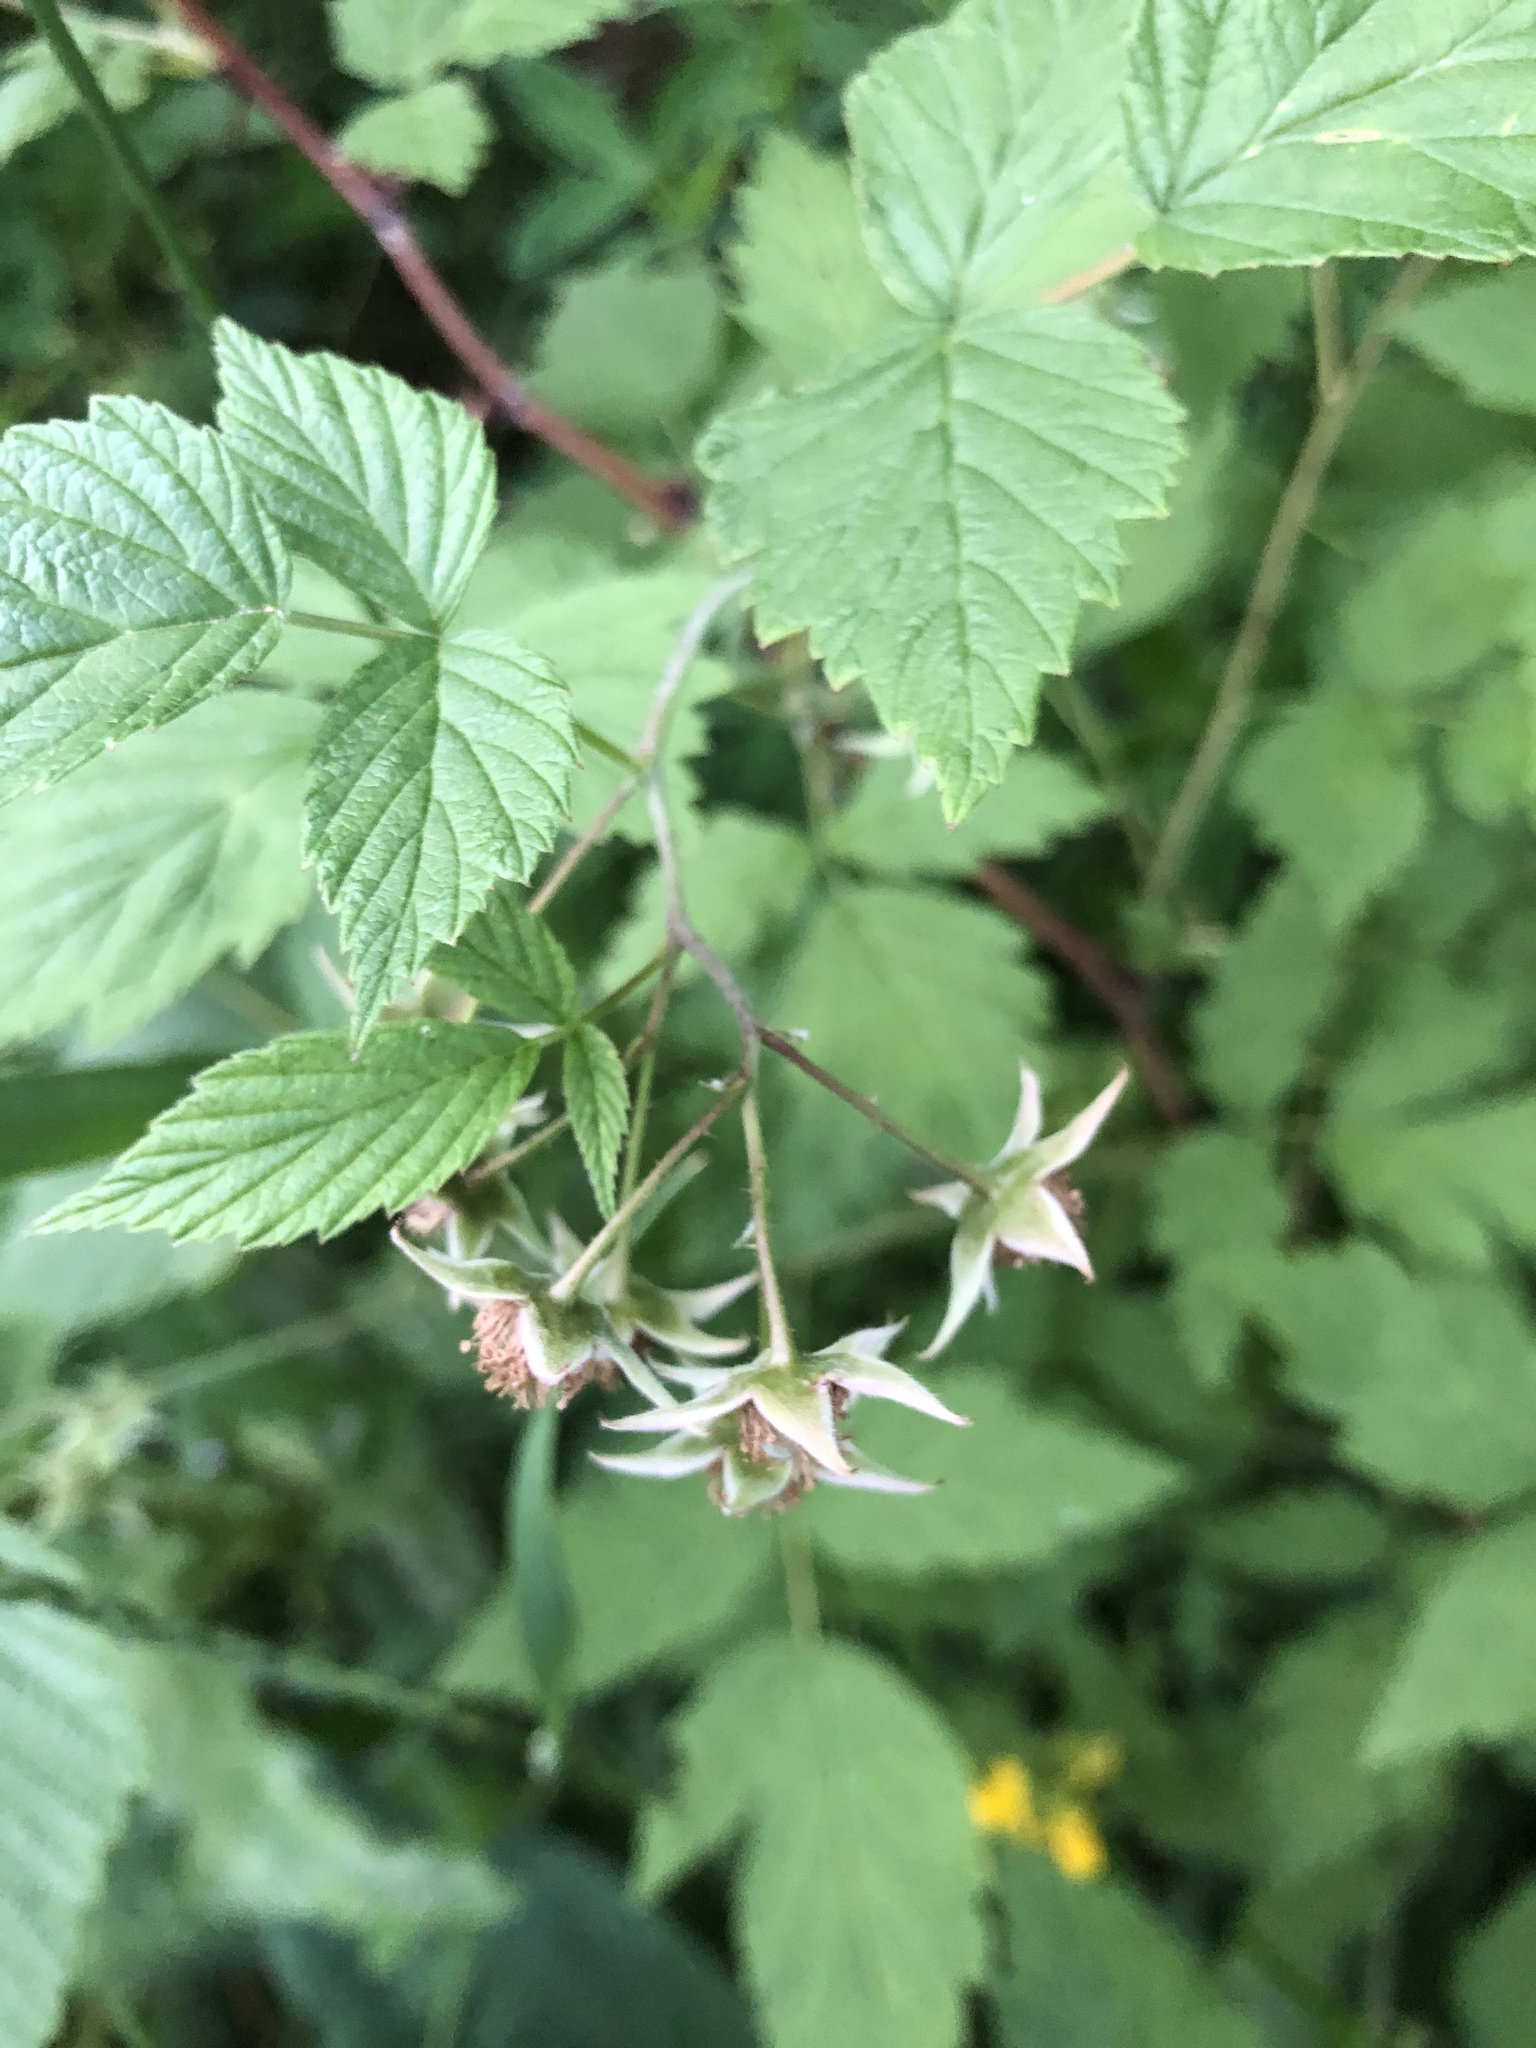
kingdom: Plantae
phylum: Tracheophyta
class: Magnoliopsida
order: Rosales
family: Rosaceae
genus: Rubus
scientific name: Rubus idaeus
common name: Raspberry
